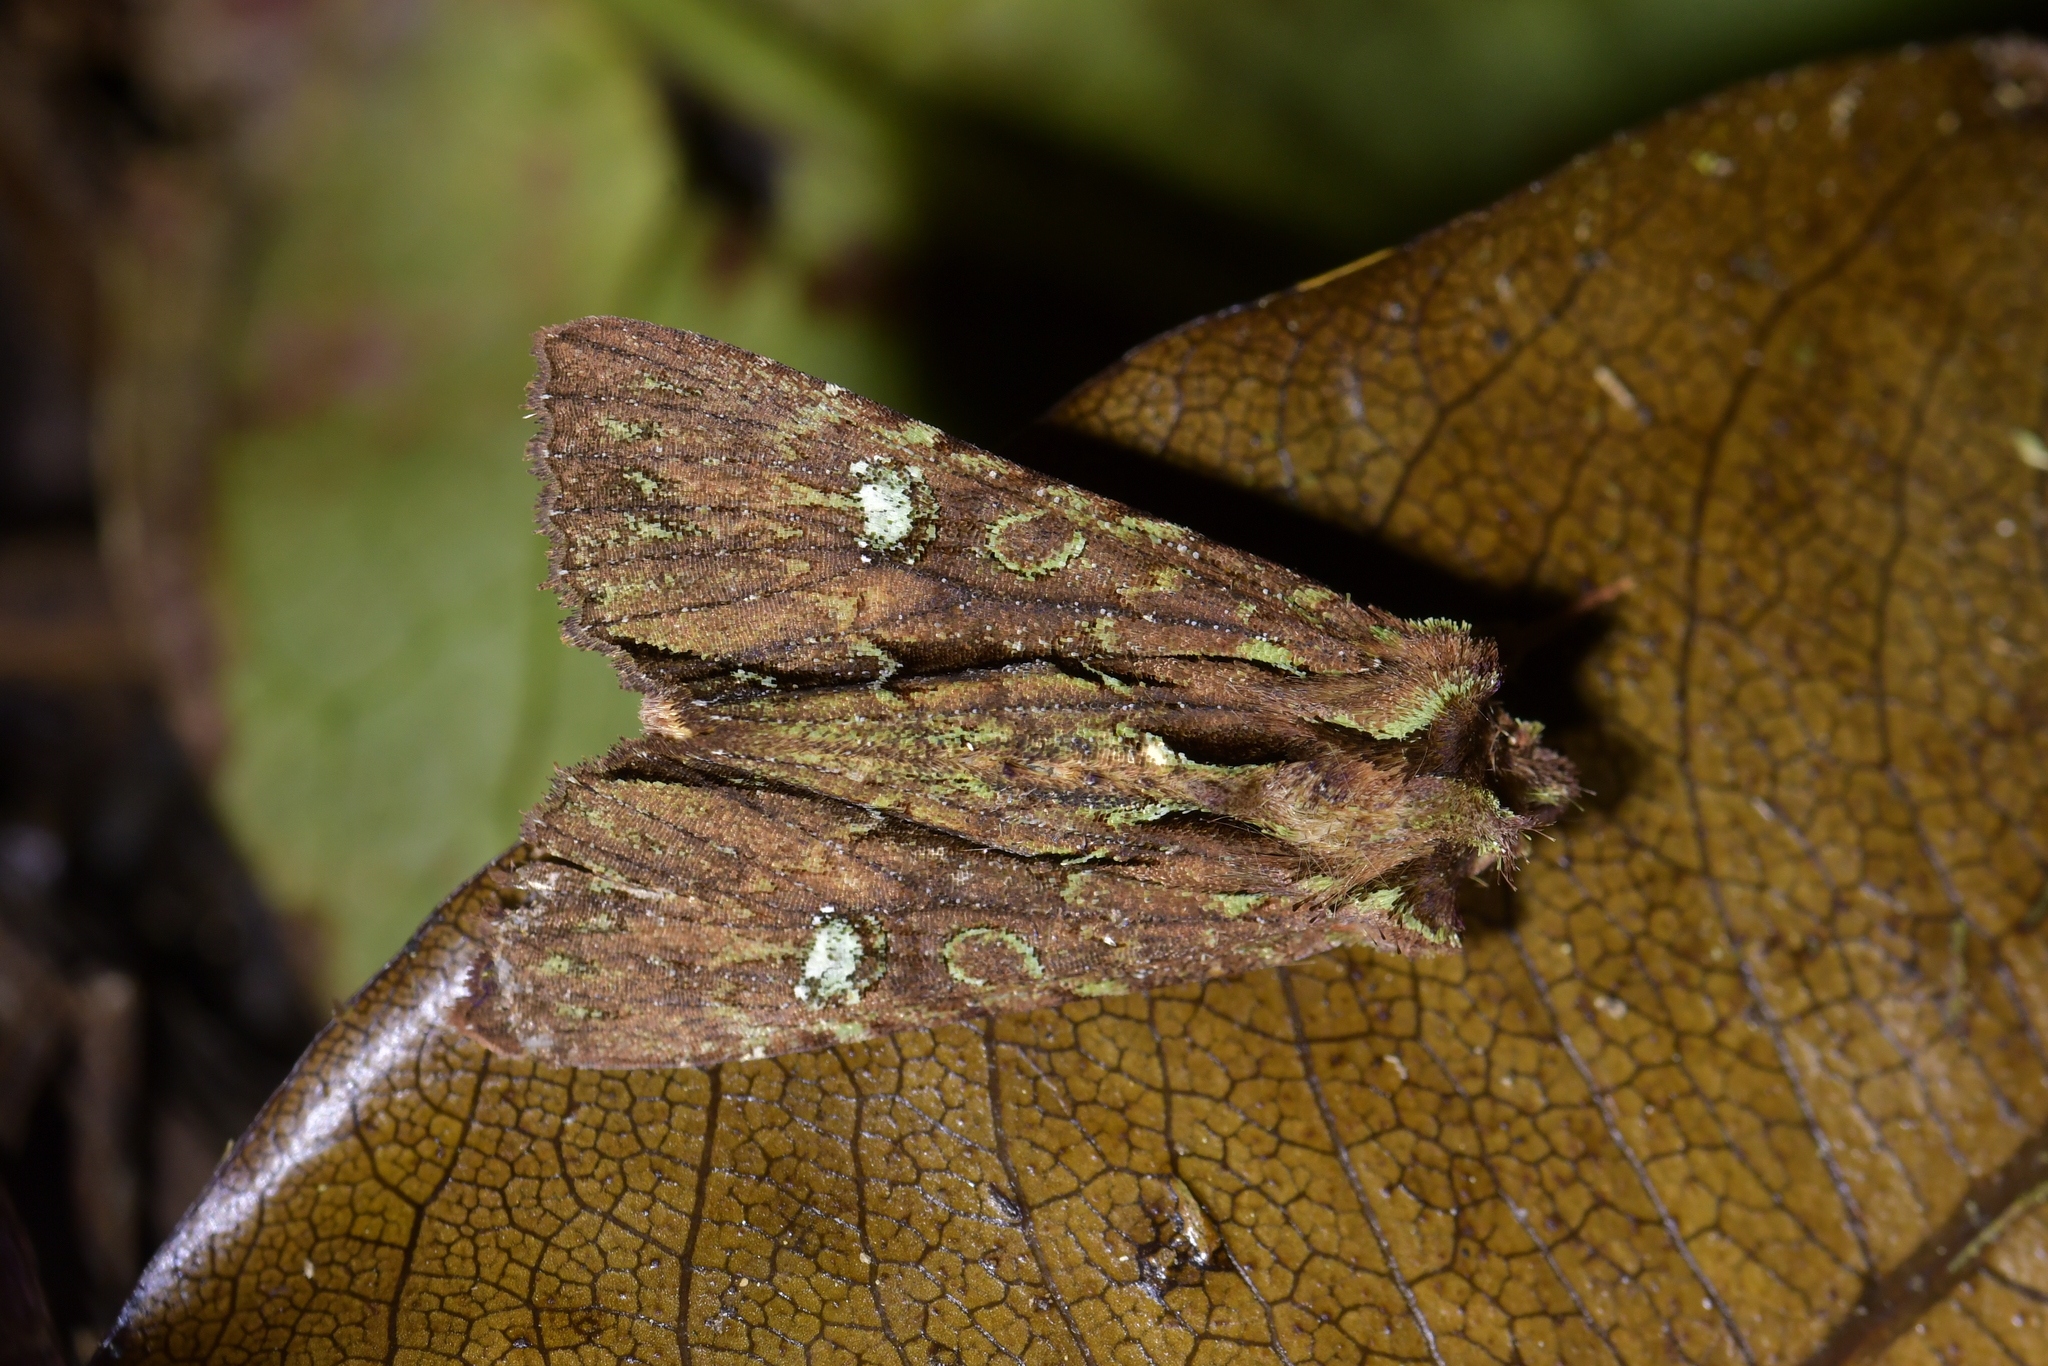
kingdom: Animalia
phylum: Arthropoda
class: Insecta
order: Lepidoptera
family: Noctuidae
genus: Meterana
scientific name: Meterana diatmeta
